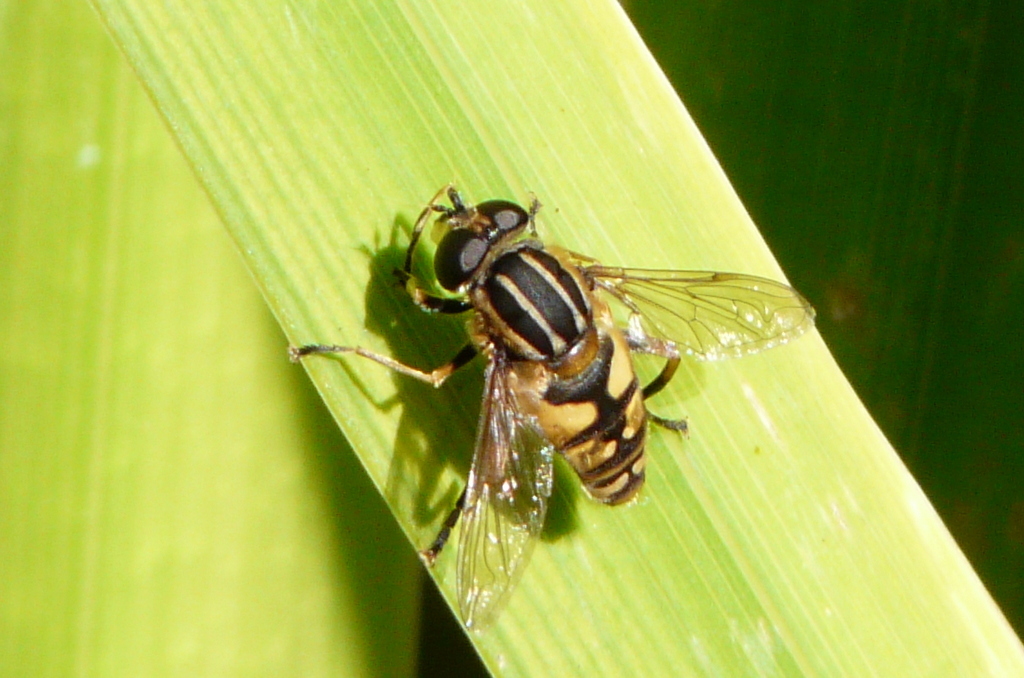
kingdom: Animalia
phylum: Arthropoda
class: Insecta
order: Diptera
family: Syrphidae
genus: Helophilus
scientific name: Helophilus pendulus
